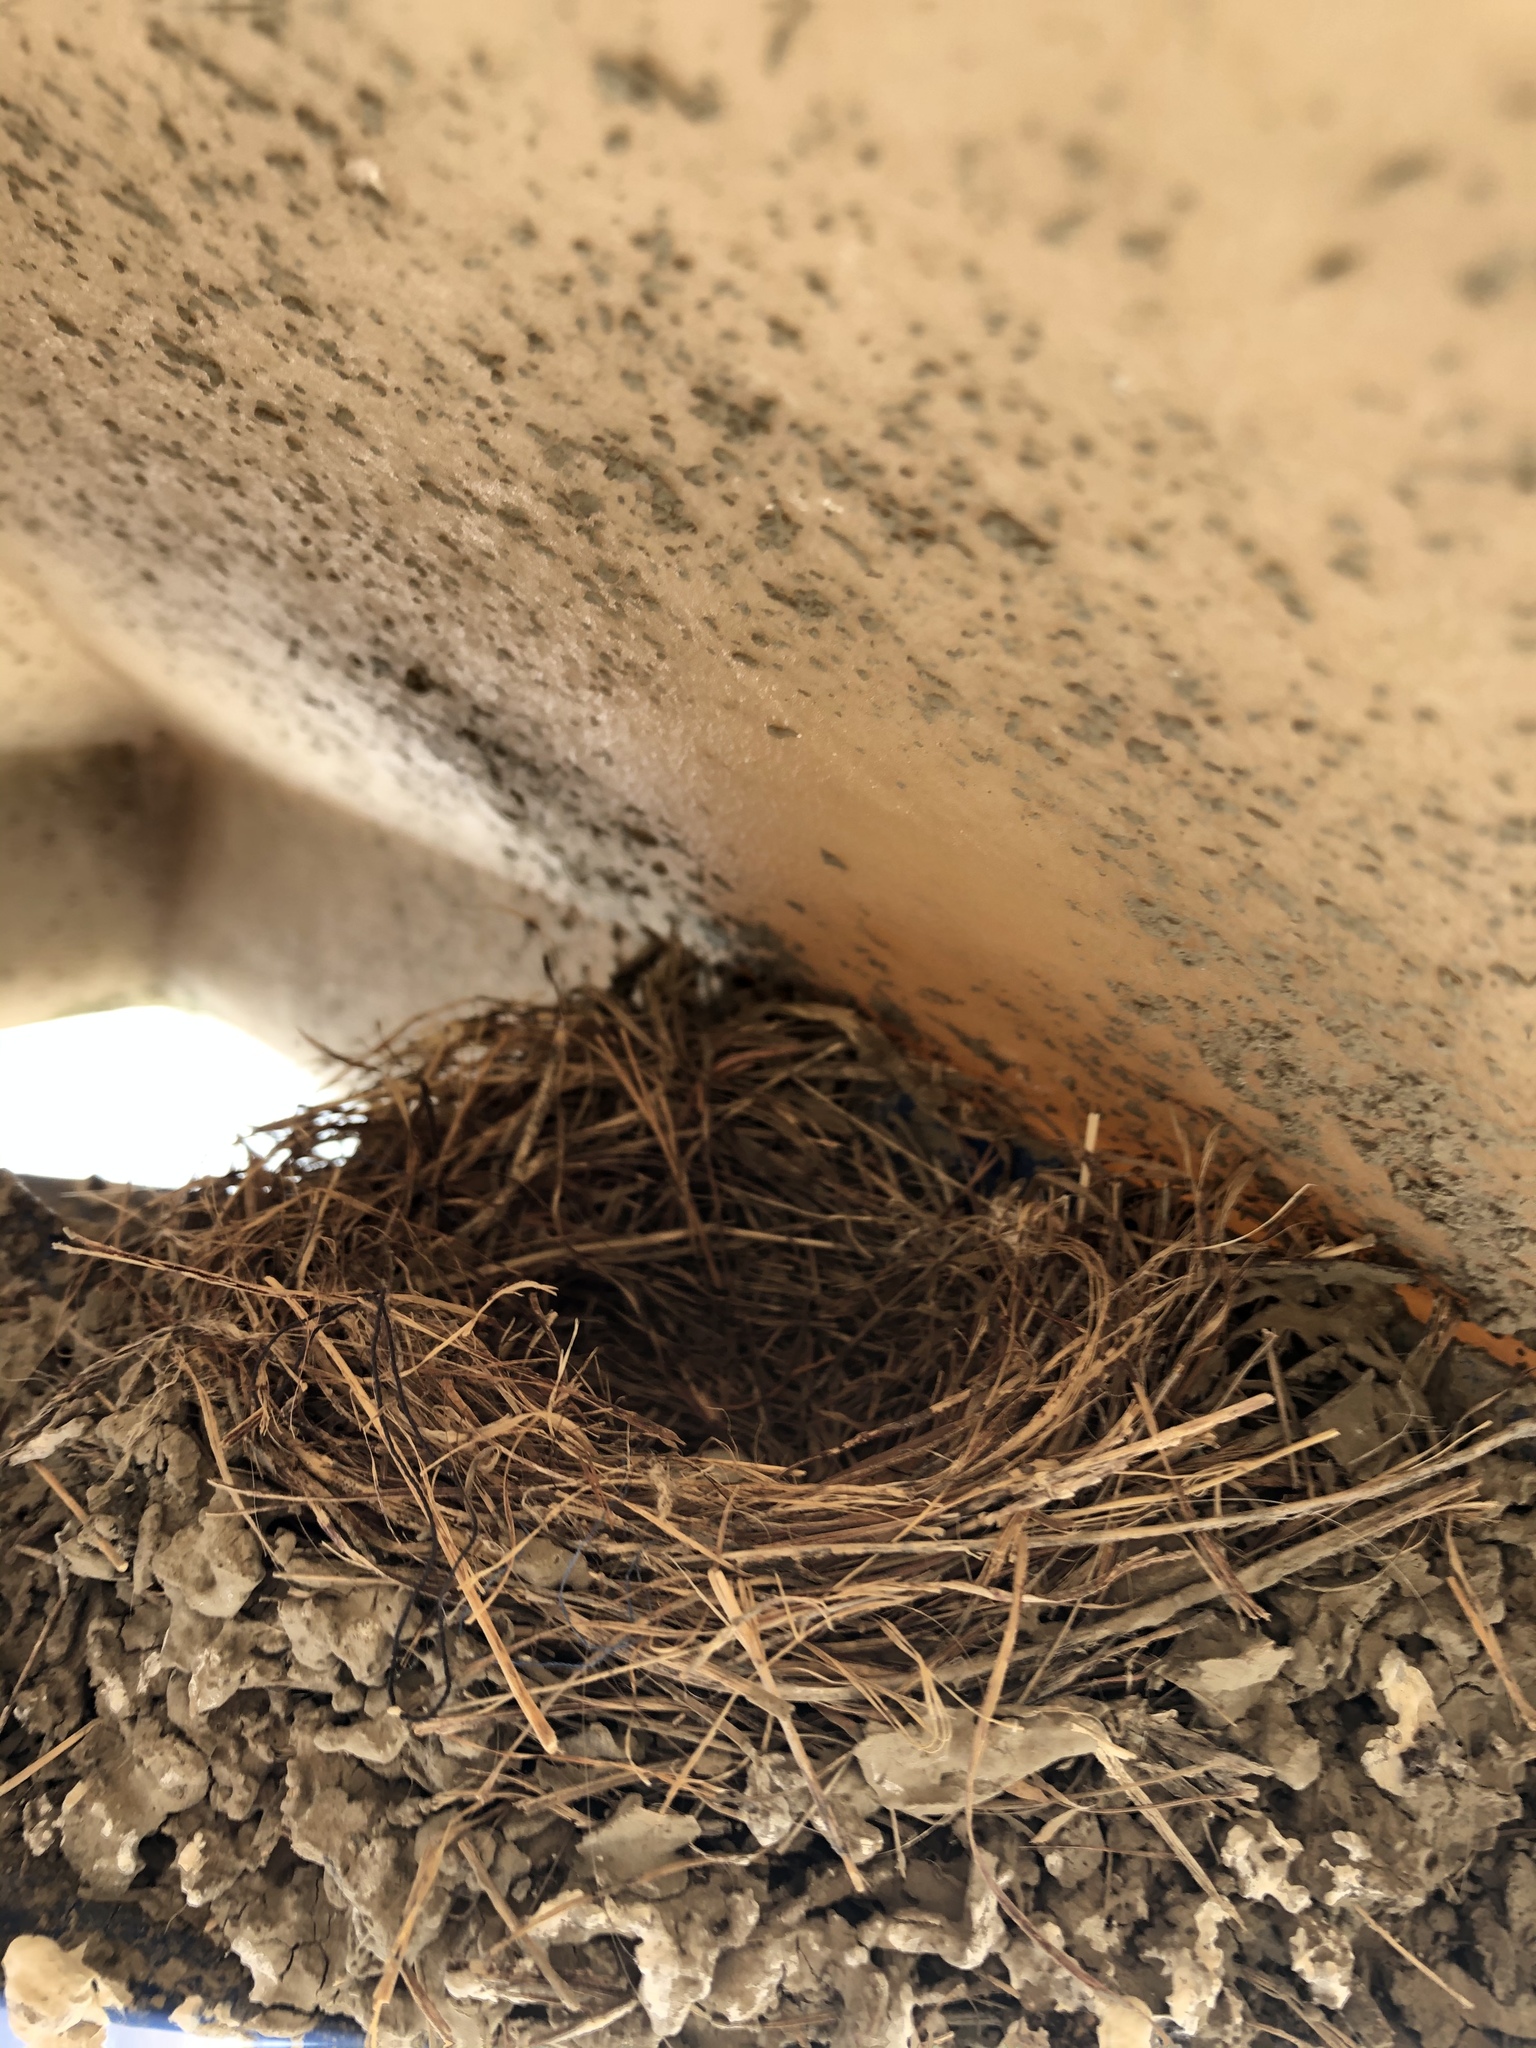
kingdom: Animalia
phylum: Chordata
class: Aves
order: Passeriformes
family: Fringillidae
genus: Haemorhous
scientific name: Haemorhous mexicanus
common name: House finch
